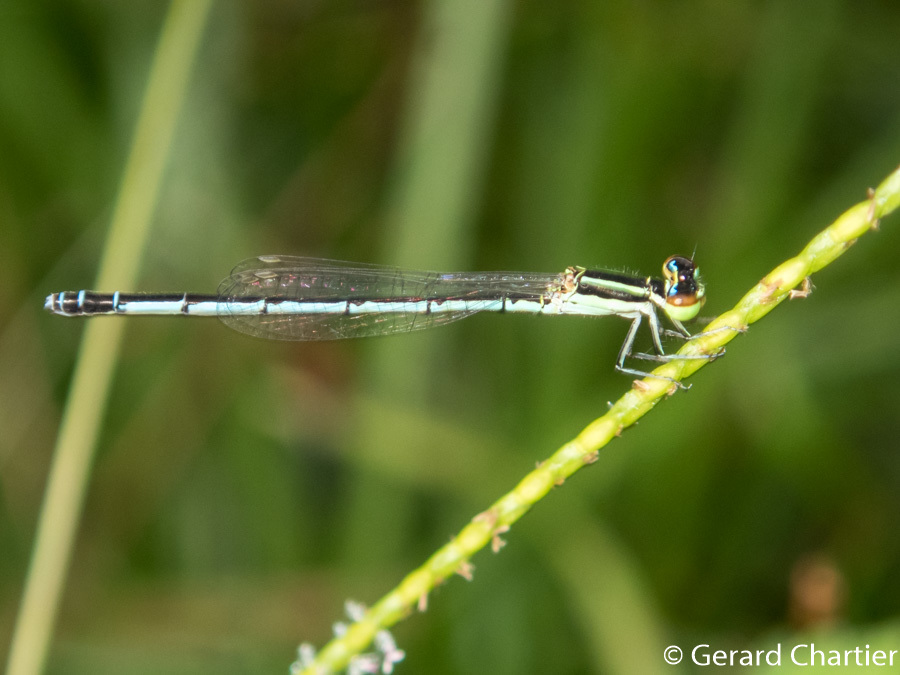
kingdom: Animalia
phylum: Arthropoda
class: Insecta
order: Odonata
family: Coenagrionidae
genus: Agriocnemis
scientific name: Agriocnemis nana
